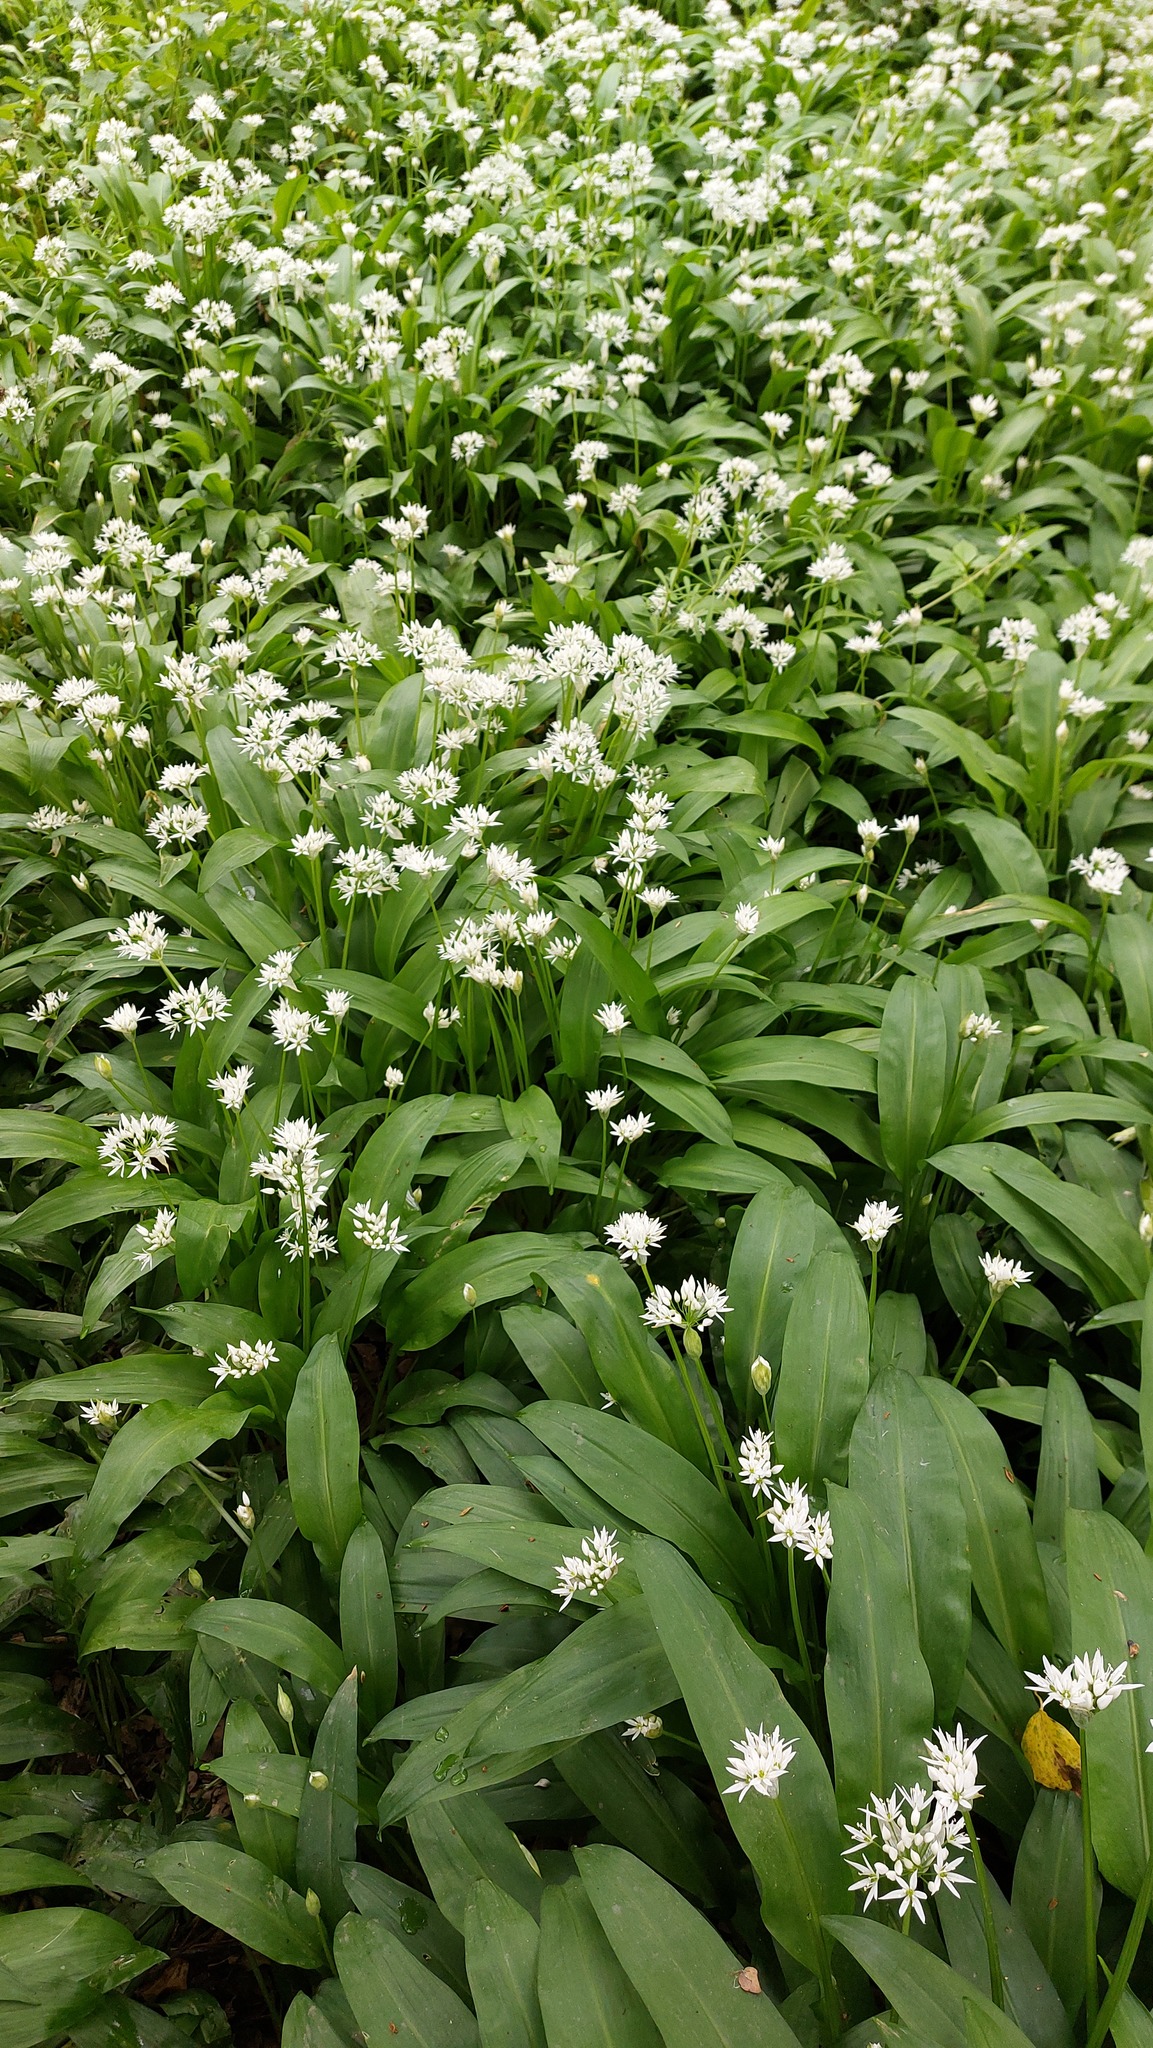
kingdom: Plantae
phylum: Tracheophyta
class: Liliopsida
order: Asparagales
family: Amaryllidaceae
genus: Allium
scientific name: Allium ursinum
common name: Ramsons
